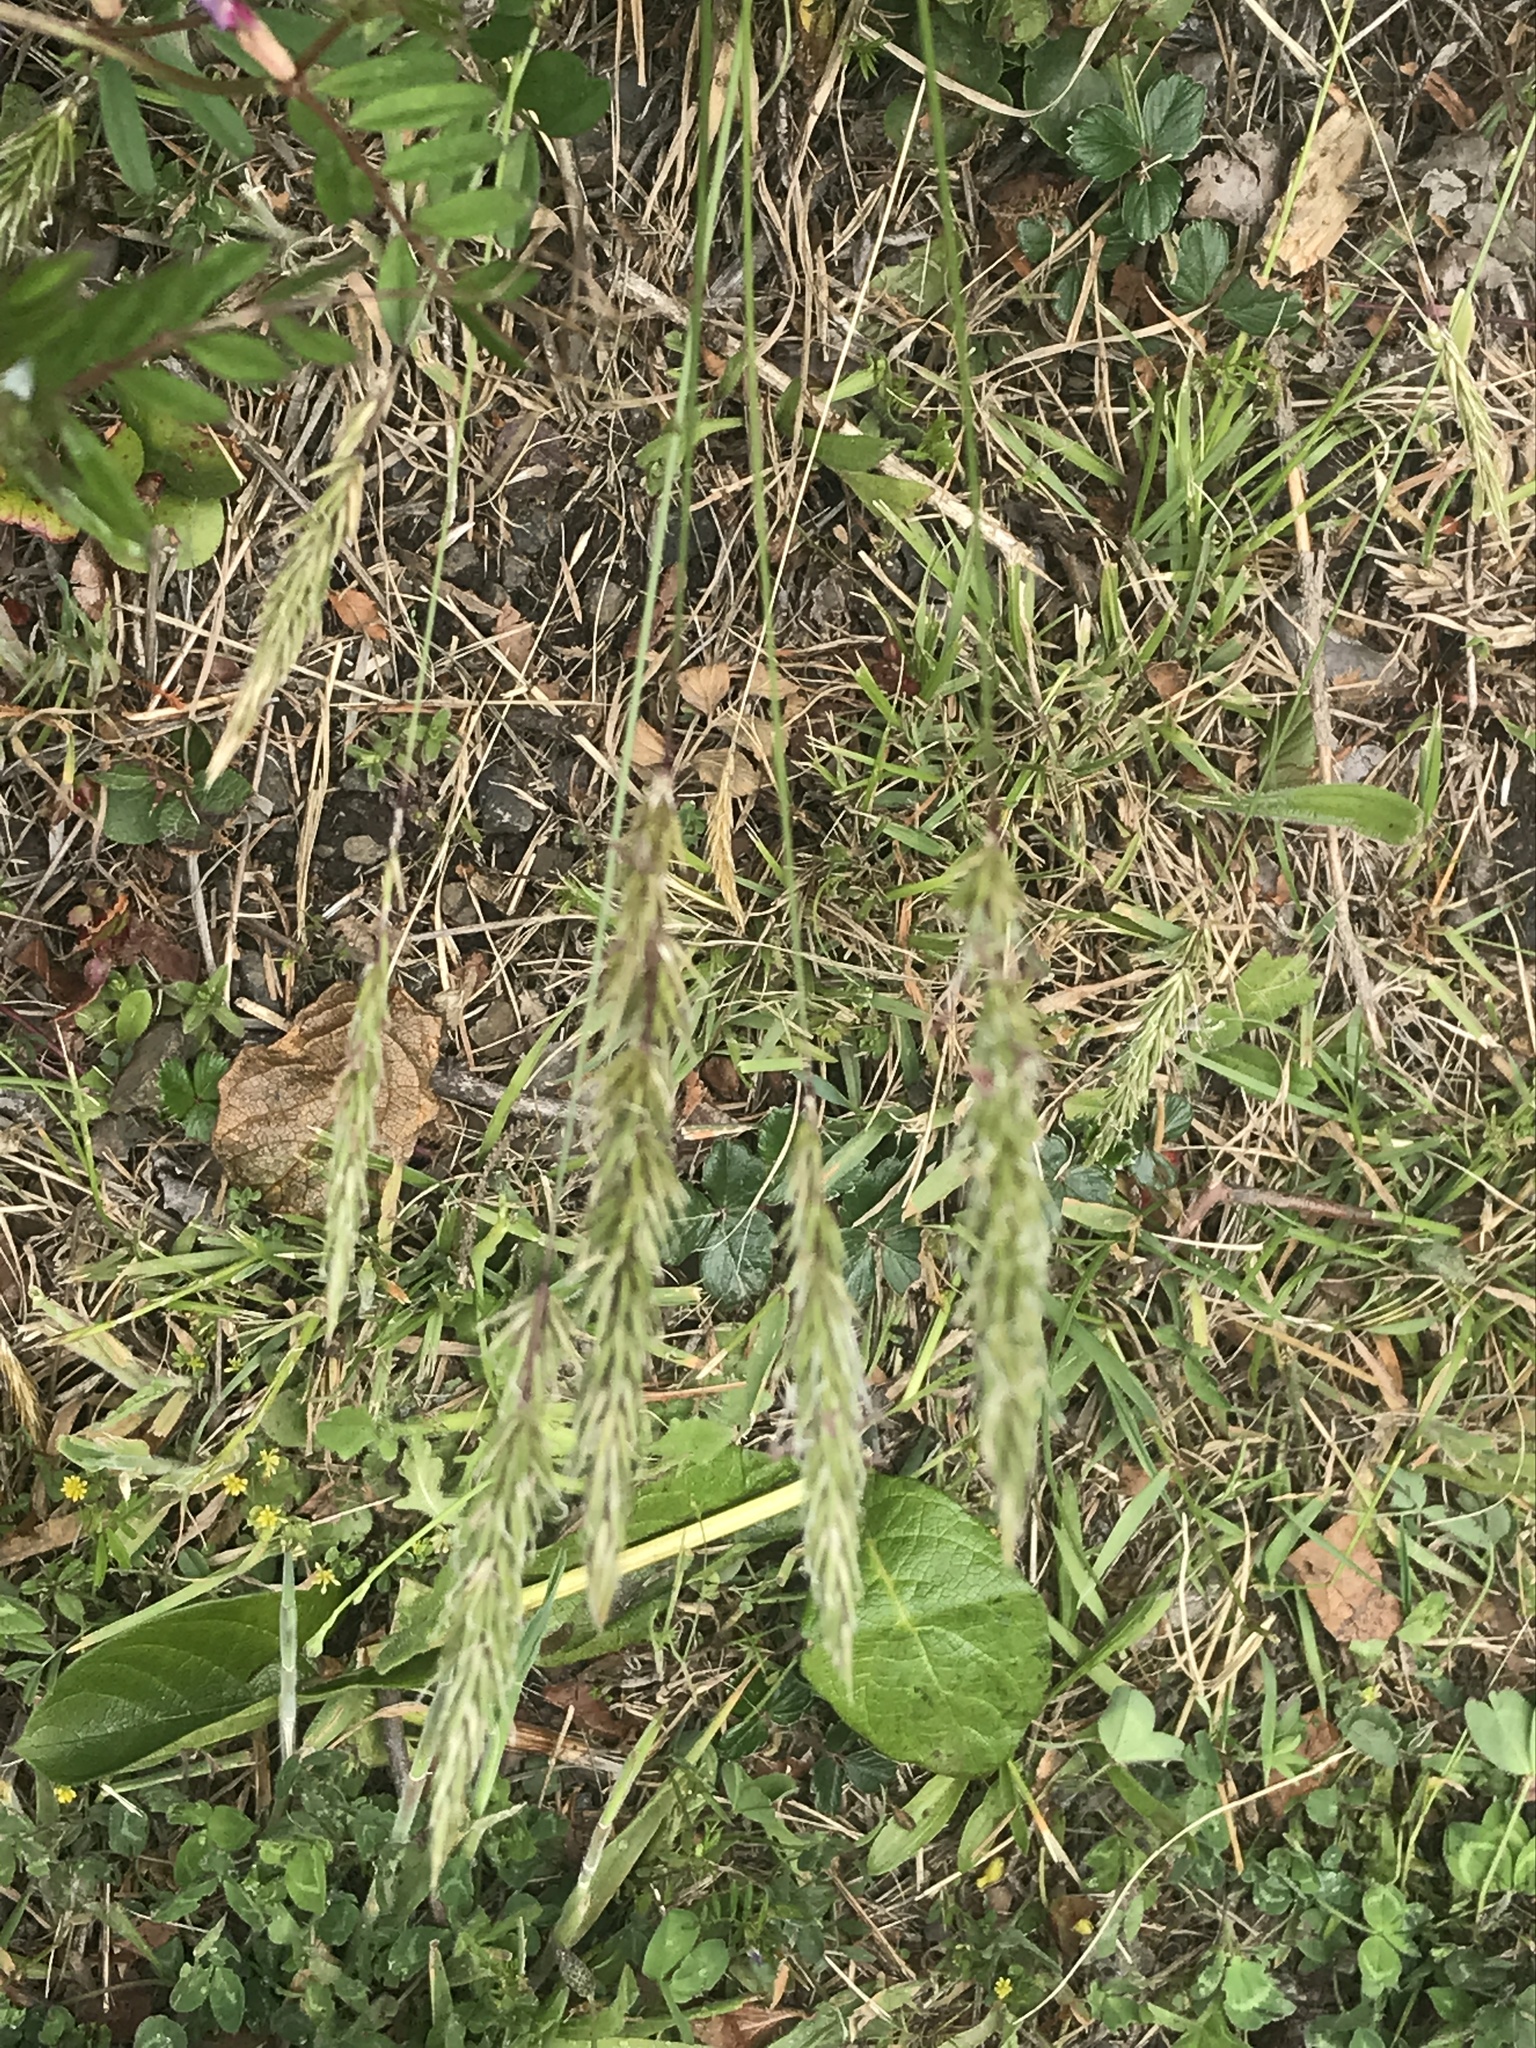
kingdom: Plantae
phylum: Tracheophyta
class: Liliopsida
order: Poales
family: Poaceae
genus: Anthoxanthum
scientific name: Anthoxanthum odoratum
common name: Sweet vernalgrass
